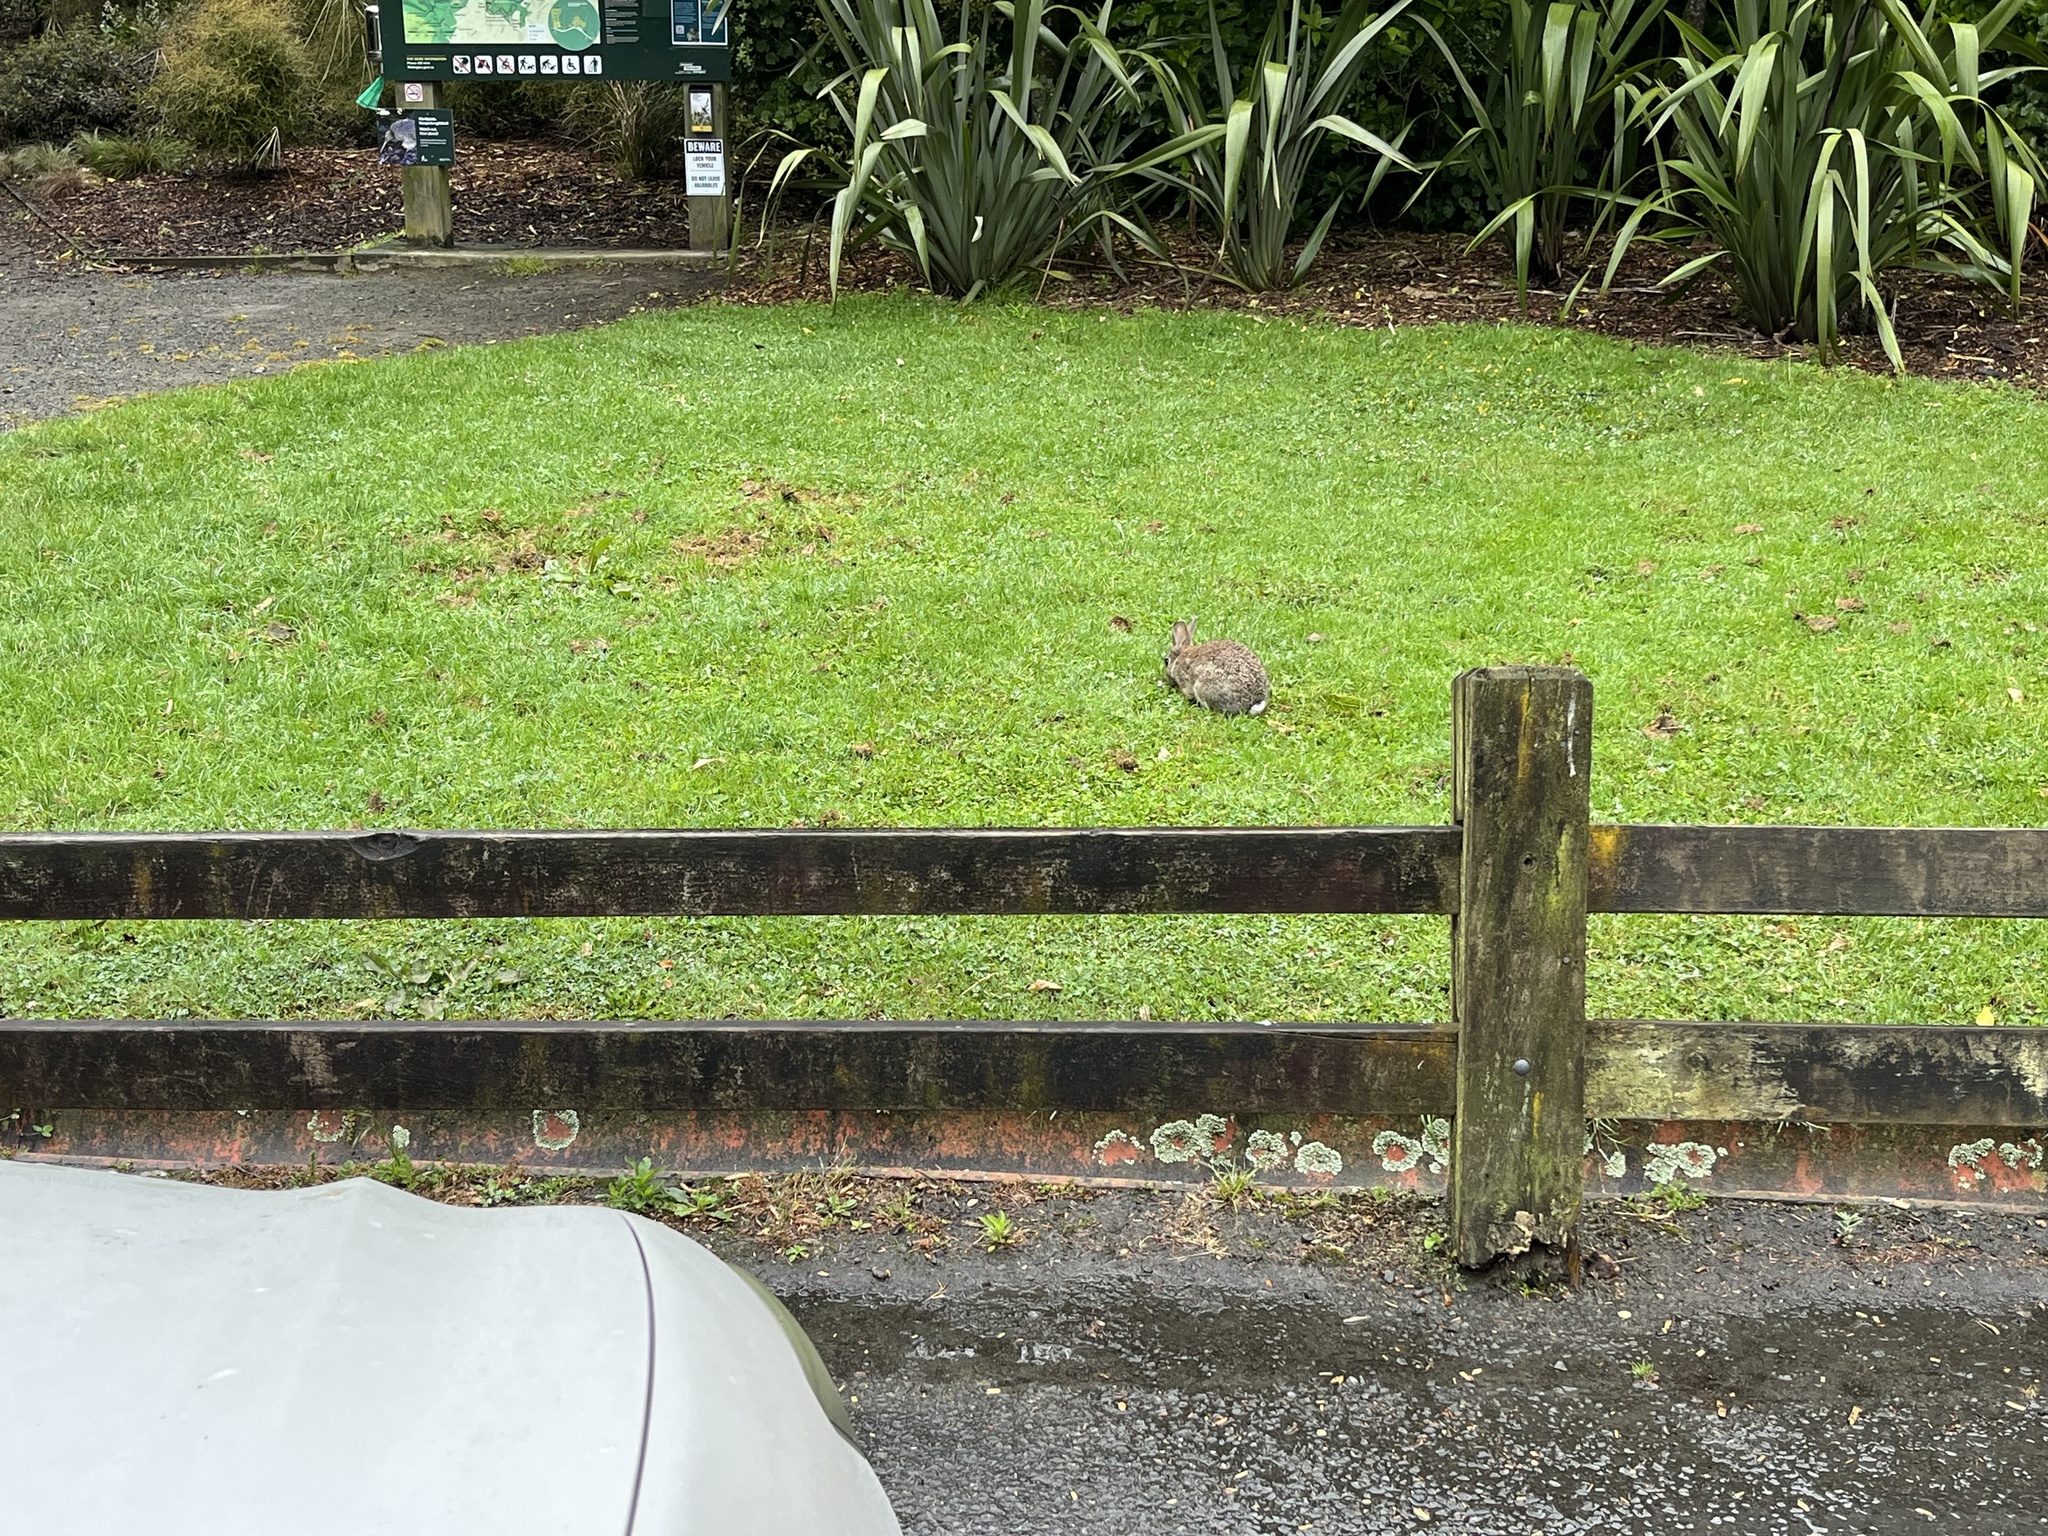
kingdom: Animalia
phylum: Chordata
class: Mammalia
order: Lagomorpha
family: Leporidae
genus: Oryctolagus
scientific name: Oryctolagus cuniculus
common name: European rabbit
